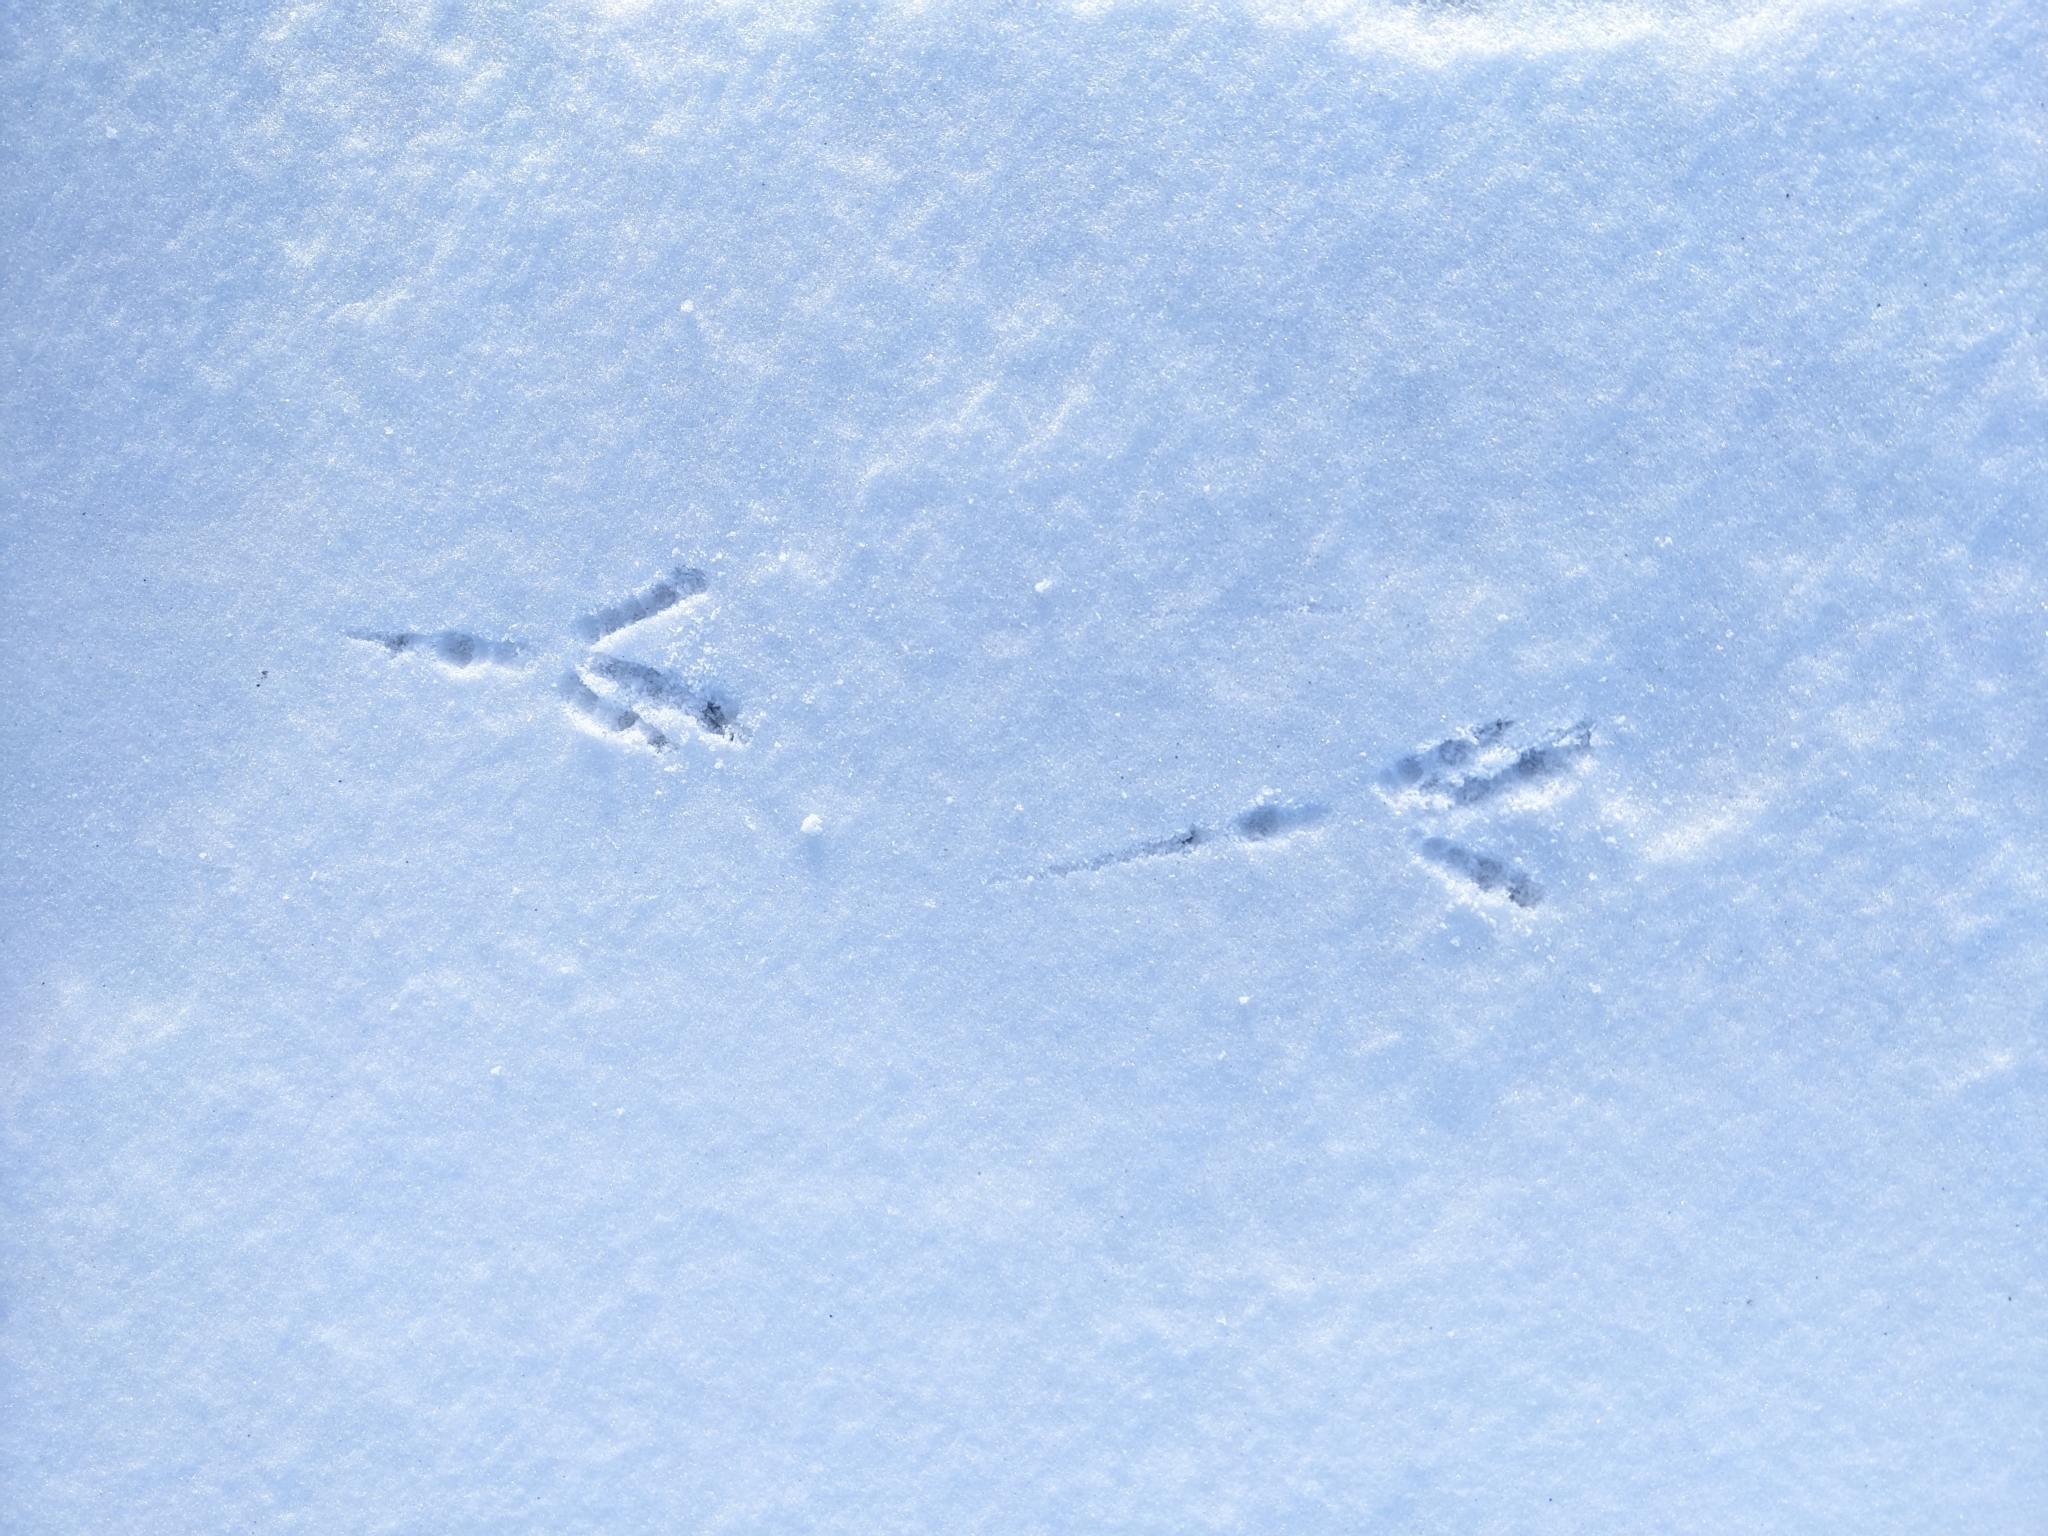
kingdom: Animalia
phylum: Chordata
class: Aves
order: Passeriformes
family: Corvidae
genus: Corvus
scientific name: Corvus brachyrhynchos
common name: American crow
